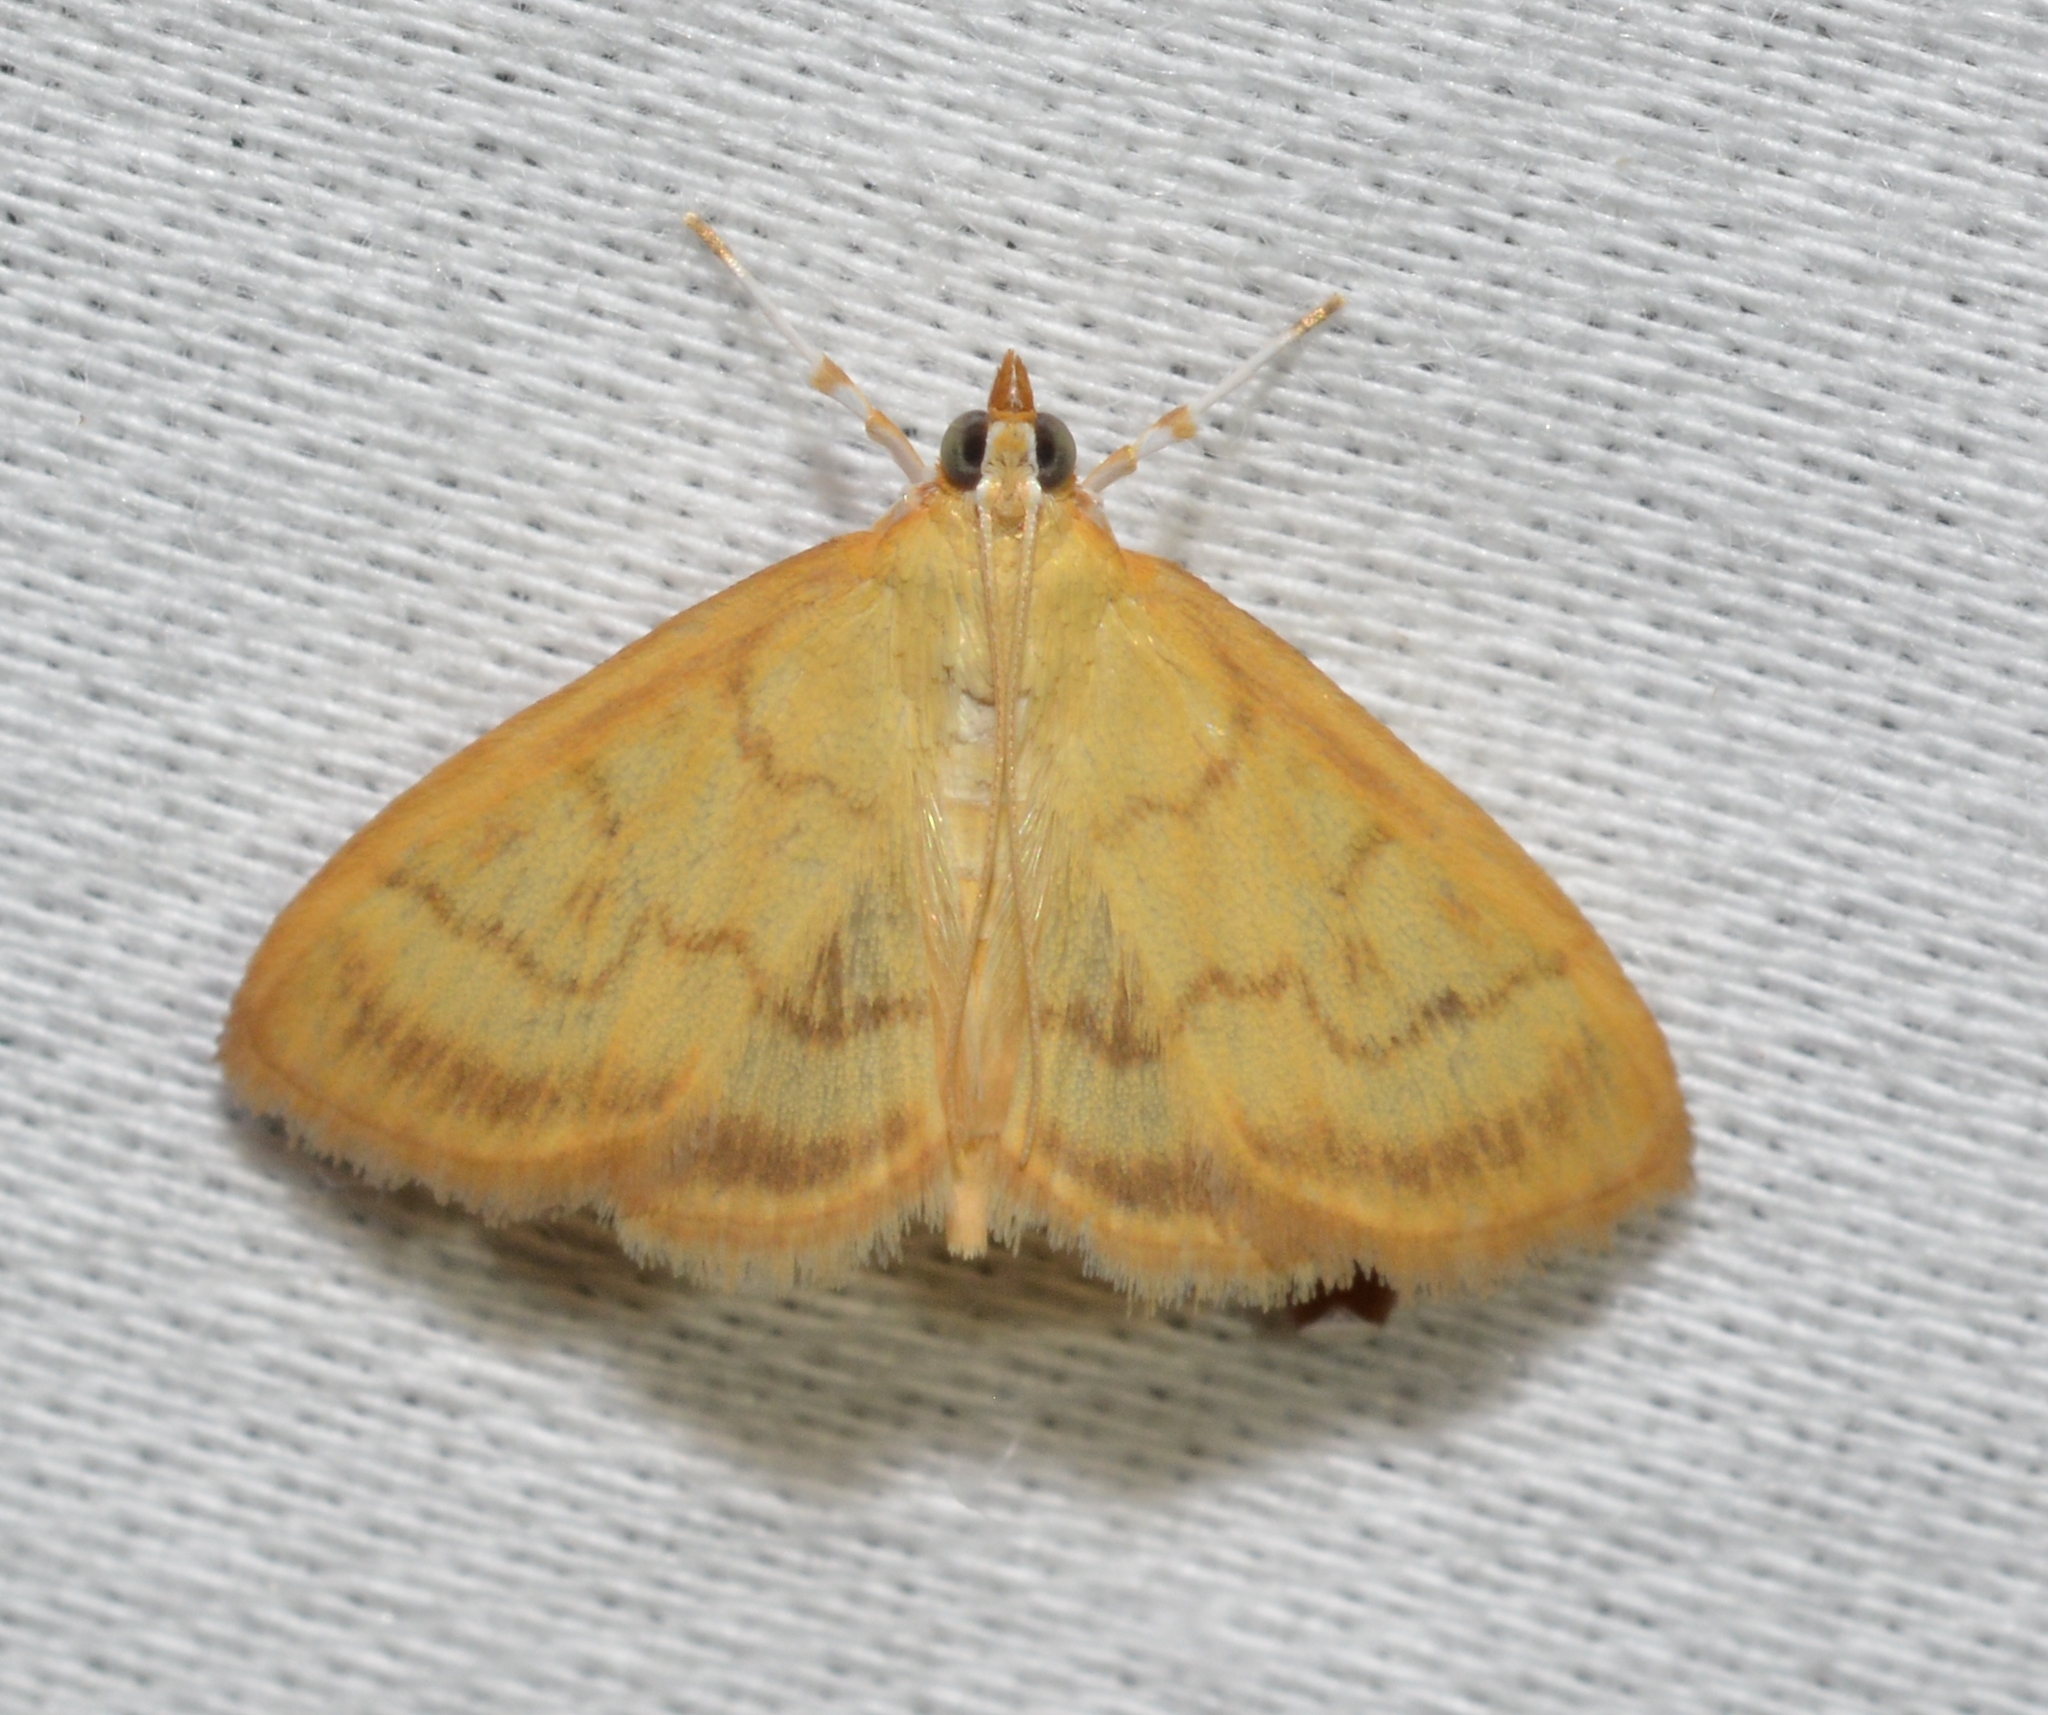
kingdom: Animalia
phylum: Arthropoda
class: Insecta
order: Lepidoptera
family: Crambidae
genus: Crocidophora
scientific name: Crocidophora tuberculalis
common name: Pale-winged crocidiphora moth
